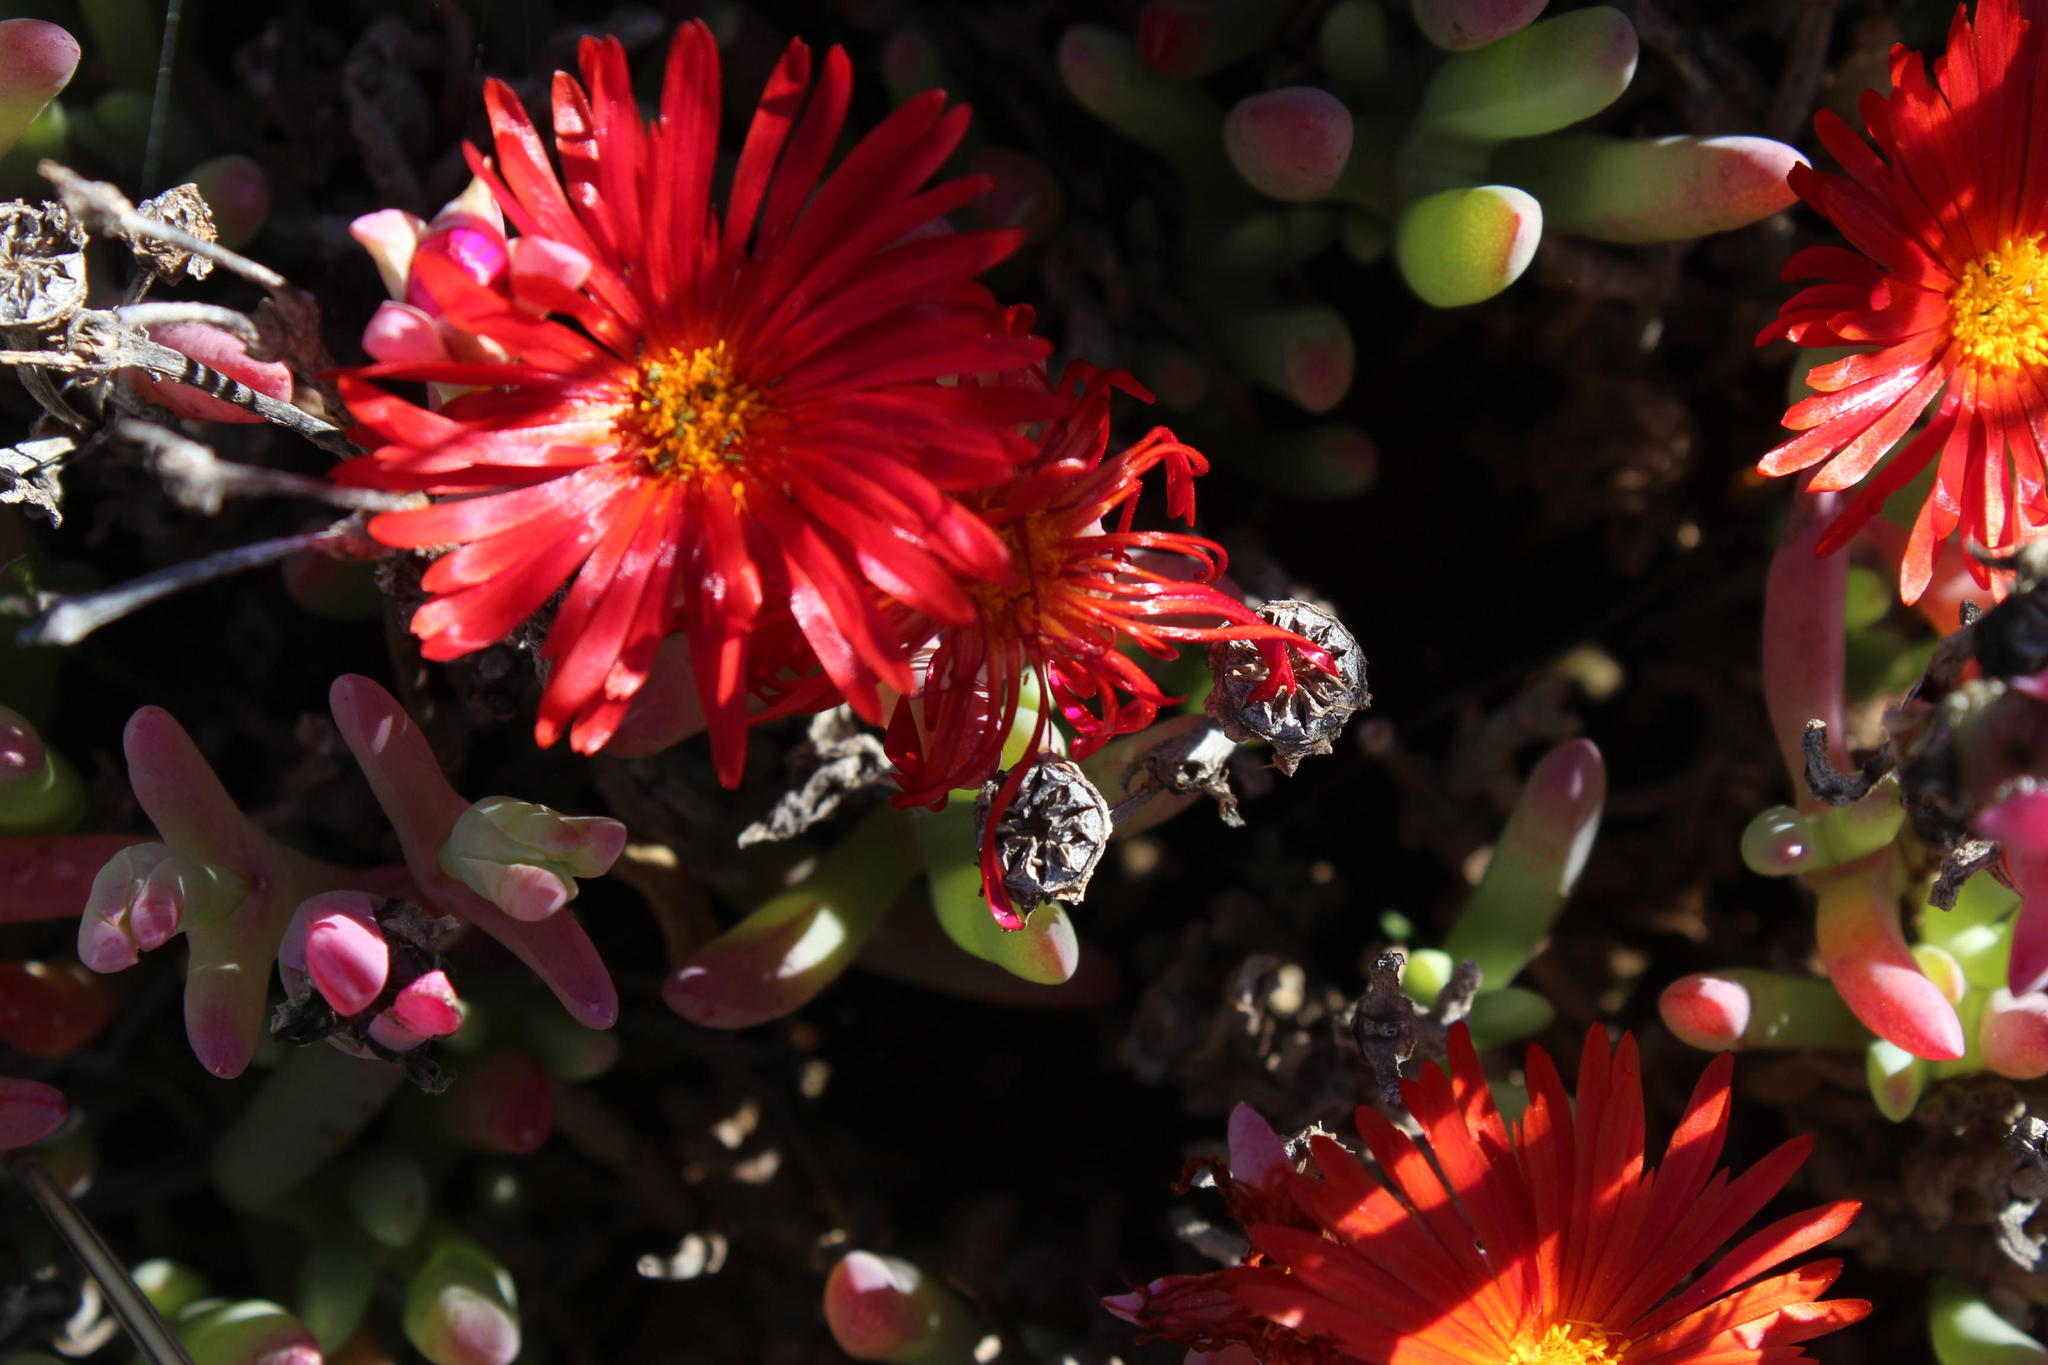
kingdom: Plantae
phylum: Tracheophyta
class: Magnoliopsida
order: Caryophyllales
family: Aizoaceae
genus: Malephora
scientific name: Malephora purpureocrocea
